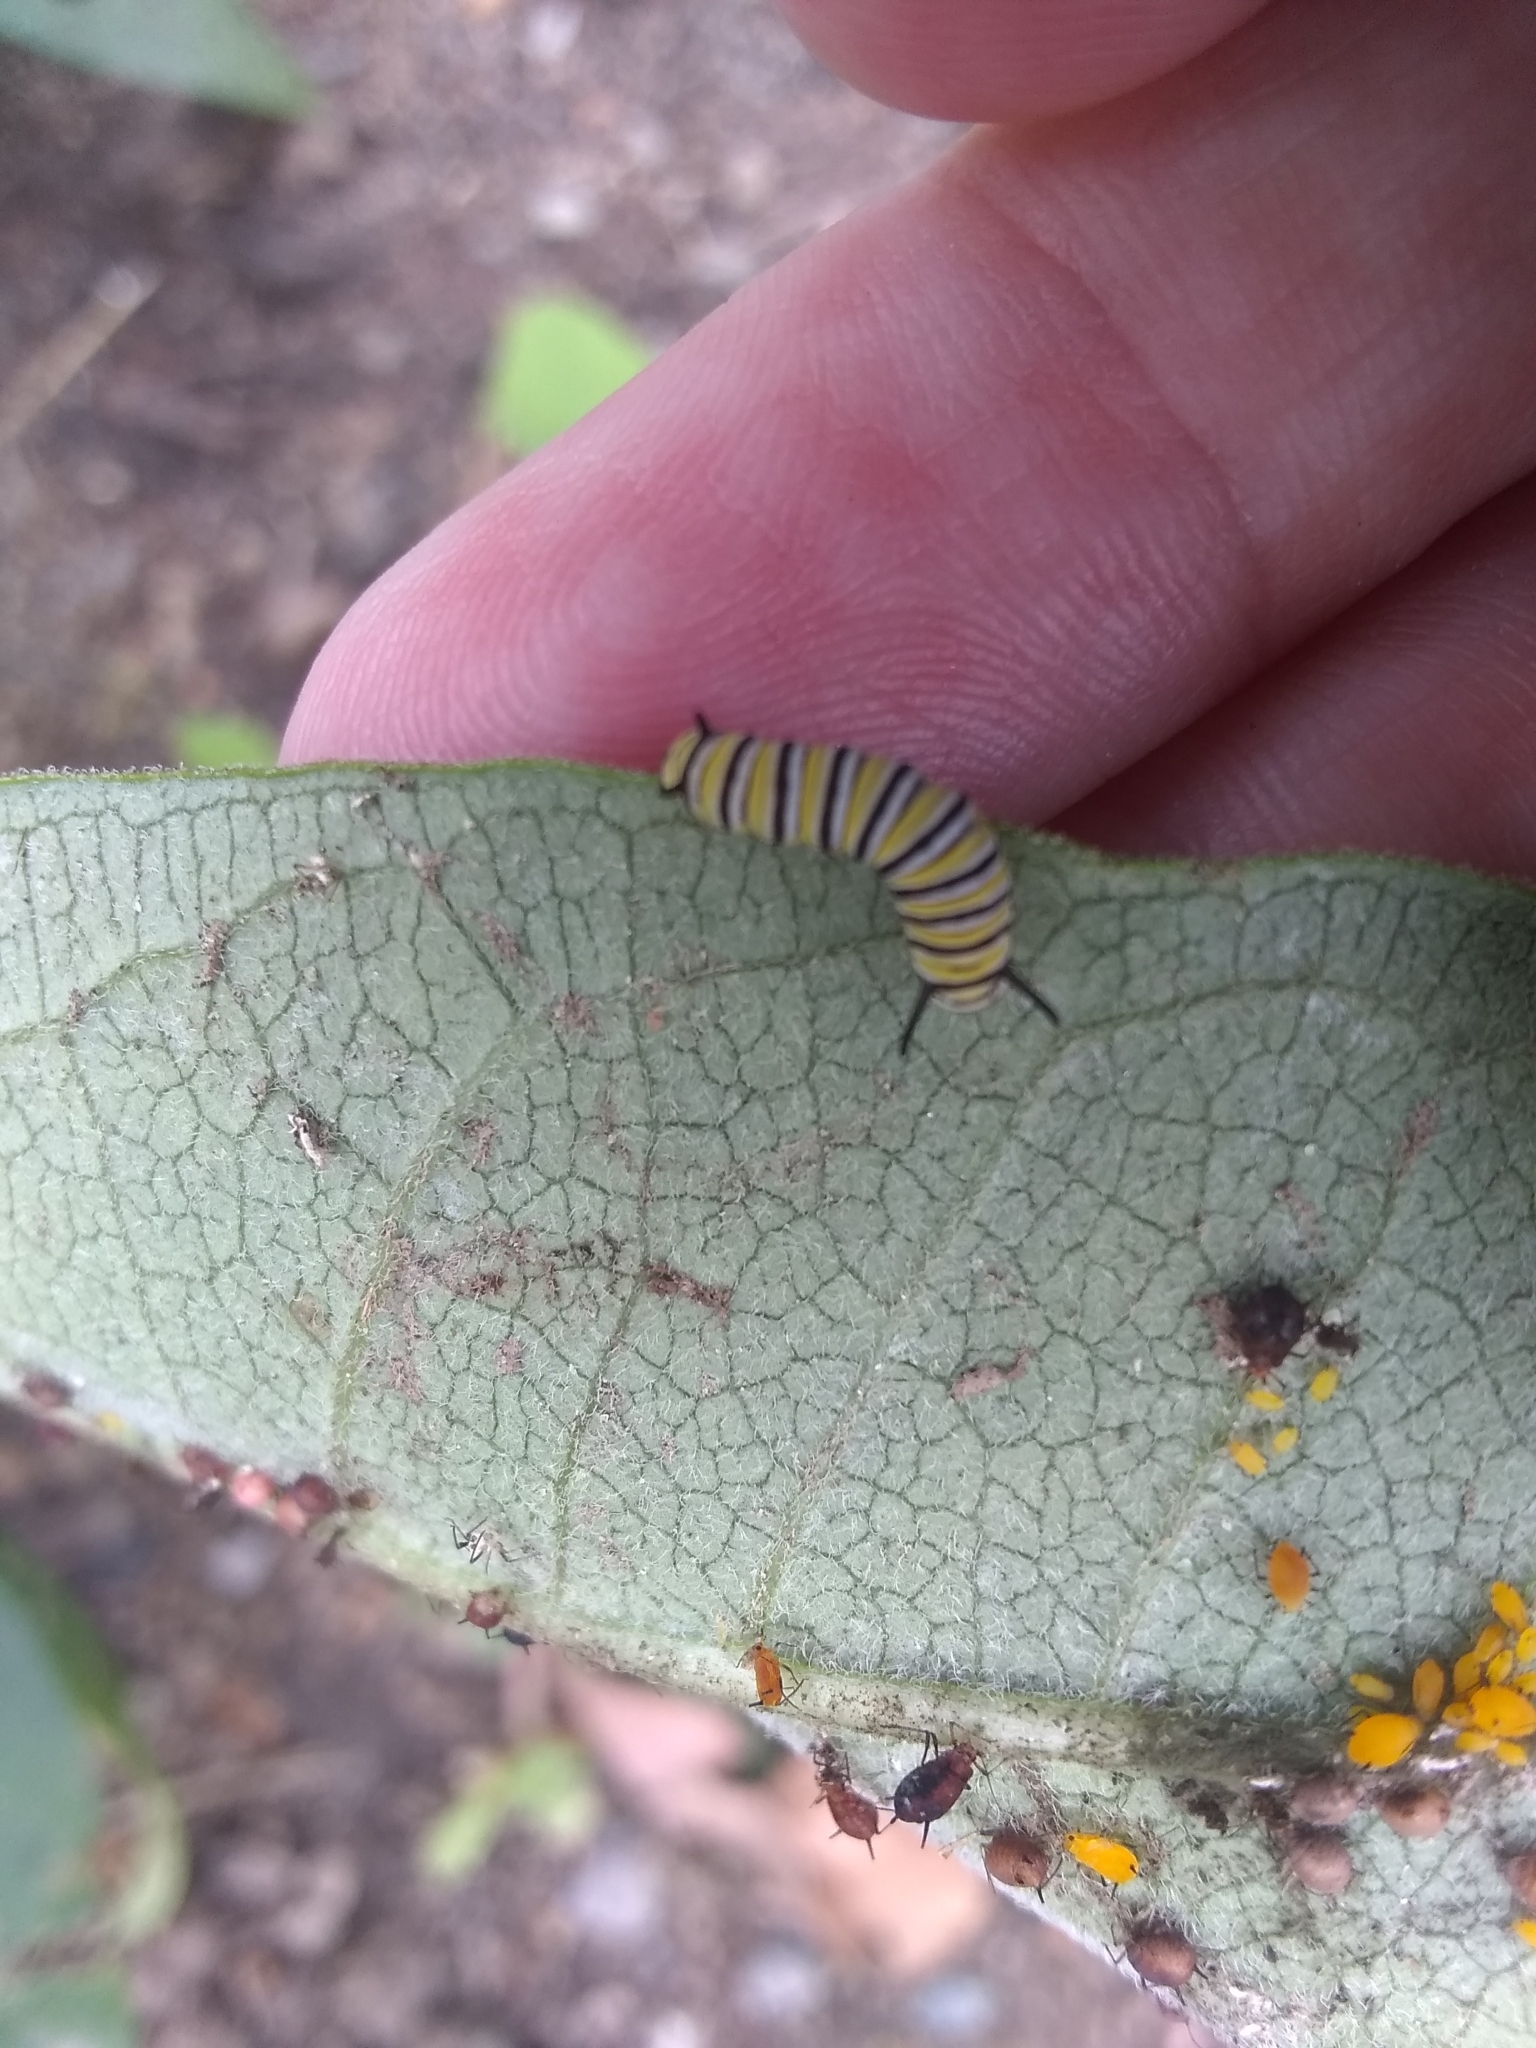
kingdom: Animalia
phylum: Arthropoda
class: Insecta
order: Lepidoptera
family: Nymphalidae
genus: Danaus
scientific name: Danaus plexippus
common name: Monarch
